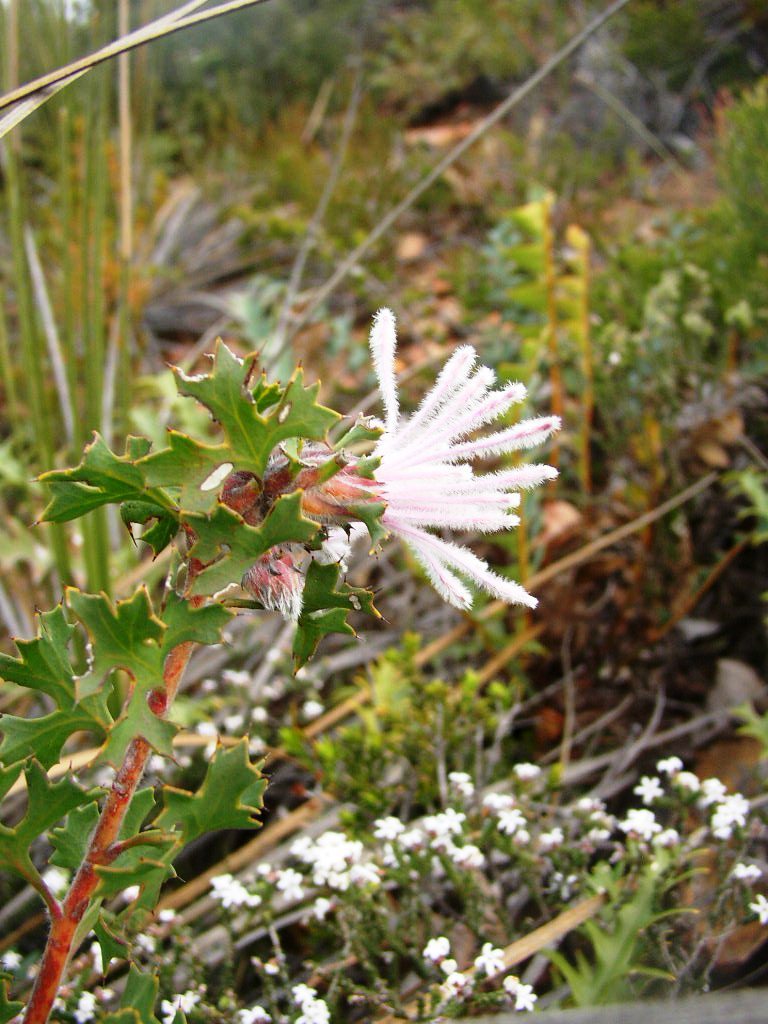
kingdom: Plantae
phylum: Tracheophyta
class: Magnoliopsida
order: Proteales
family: Proteaceae
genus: Isopogon
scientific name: Isopogon baxteri
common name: Stirling range coneflower
